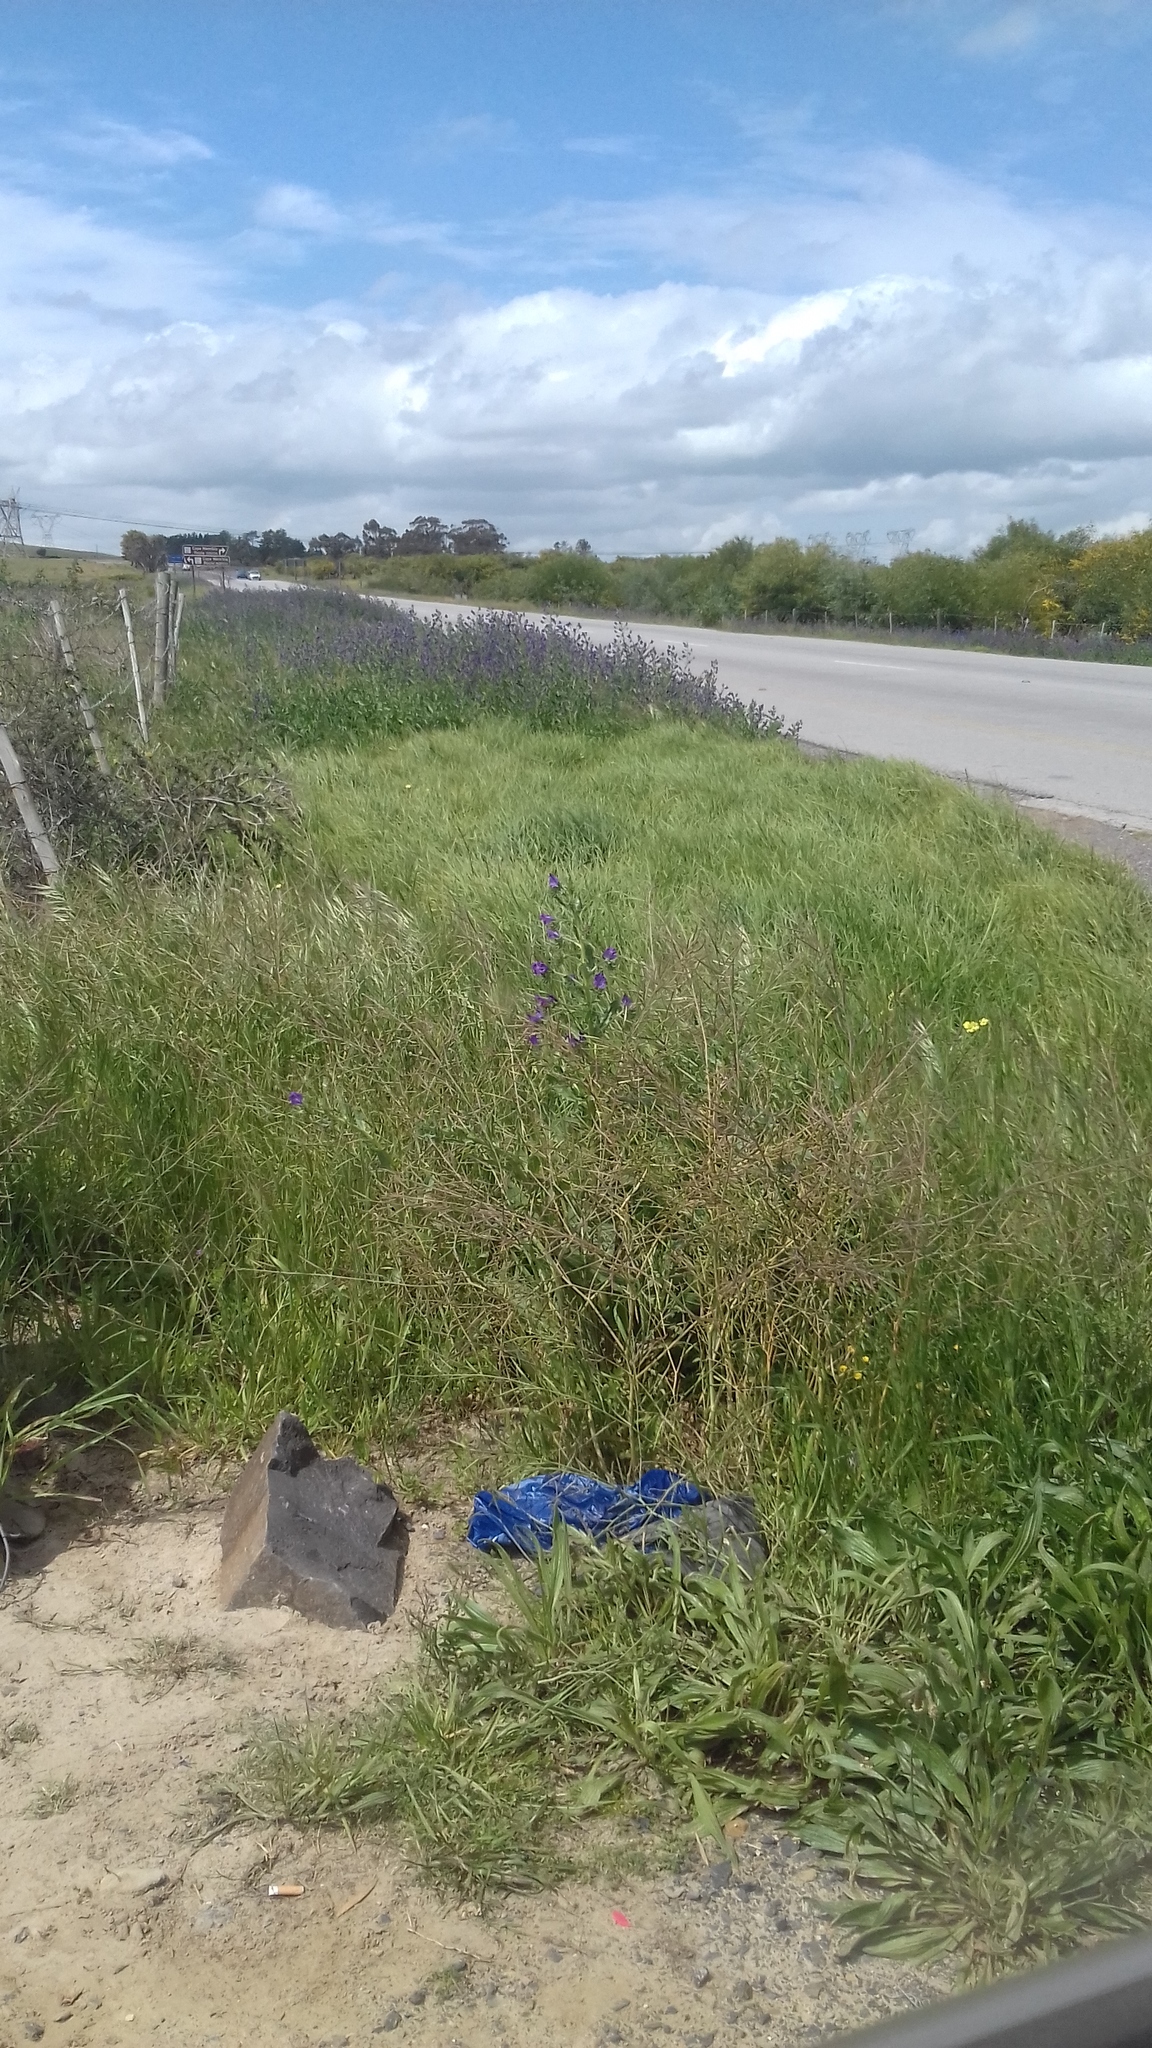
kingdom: Plantae
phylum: Tracheophyta
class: Magnoliopsida
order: Boraginales
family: Boraginaceae
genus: Echium
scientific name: Echium plantagineum
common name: Purple viper's-bugloss
